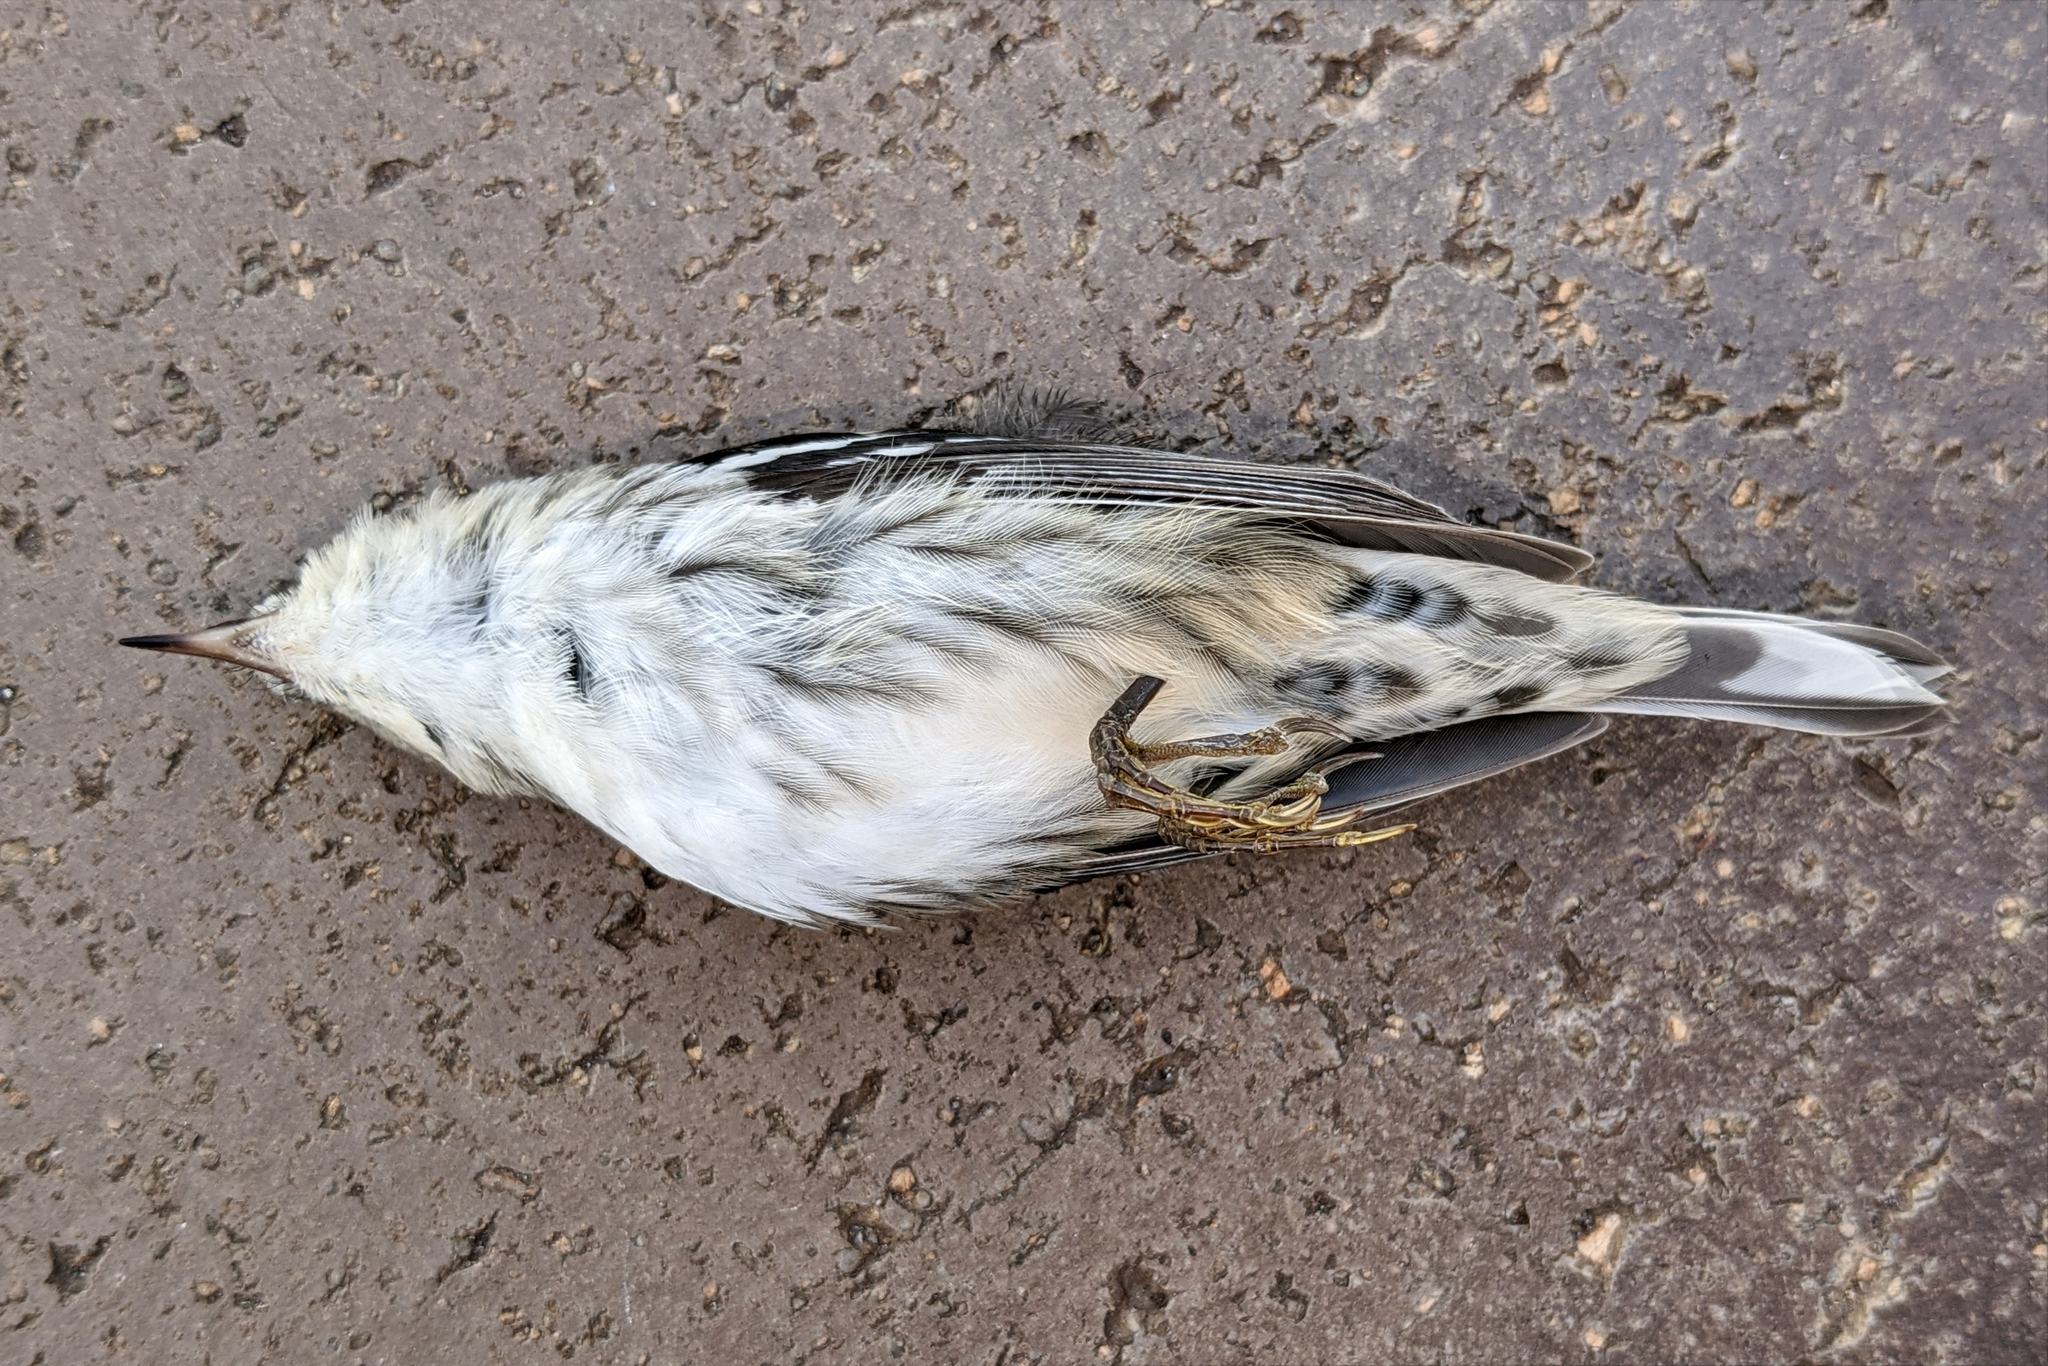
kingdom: Animalia
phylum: Chordata
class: Aves
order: Passeriformes
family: Parulidae
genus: Mniotilta
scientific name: Mniotilta varia
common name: Black-and-white warbler
